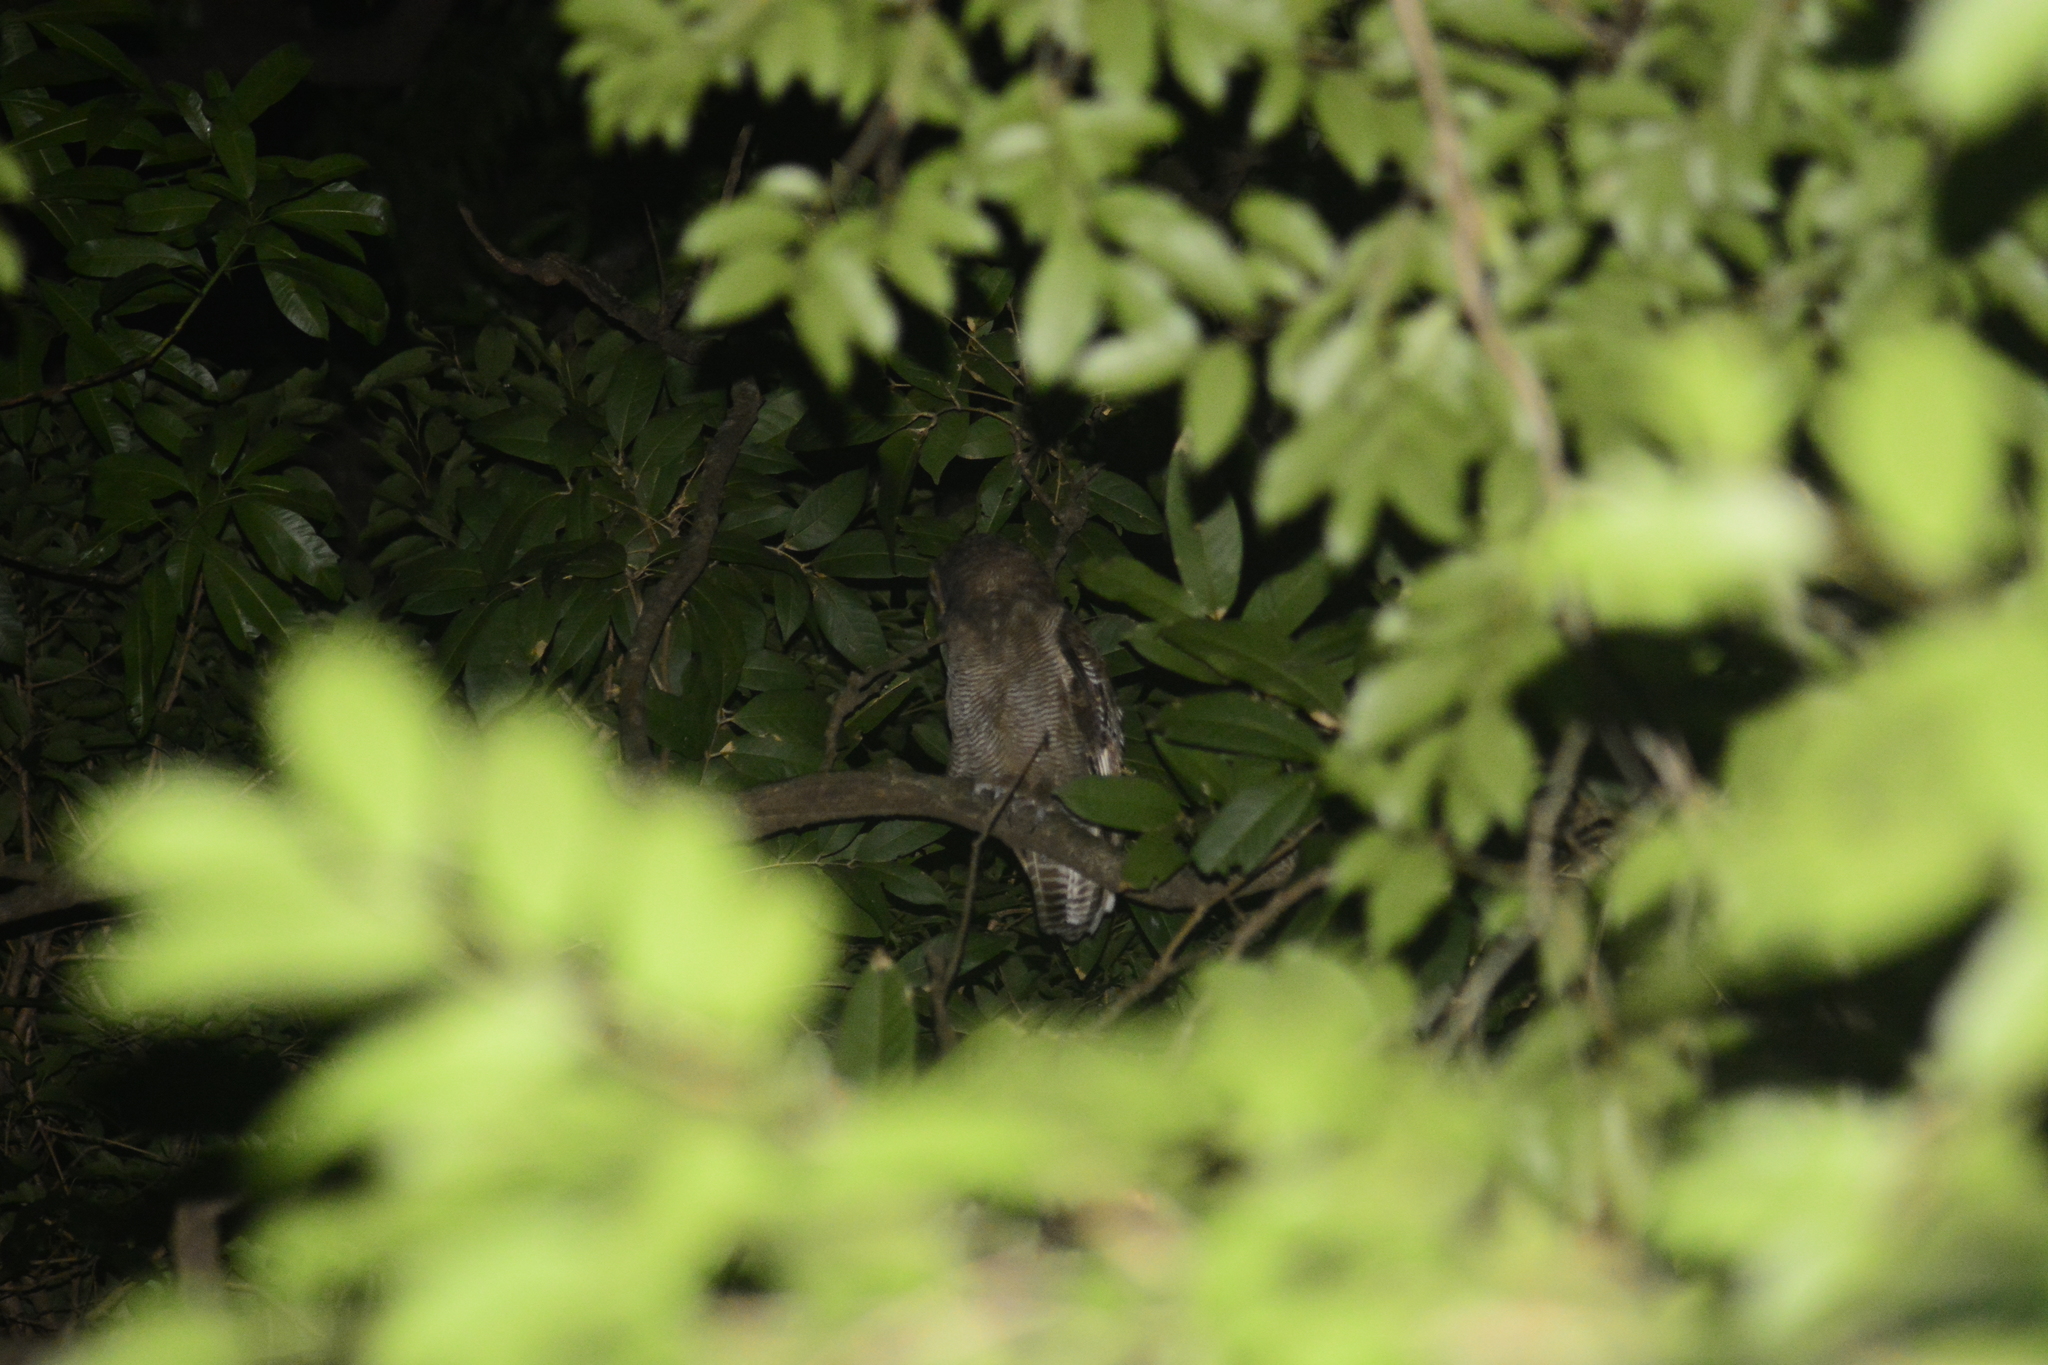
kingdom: Animalia
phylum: Chordata
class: Aves
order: Strigiformes
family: Strigidae
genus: Strix
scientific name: Strix leptogrammica
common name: Brown wood owl
